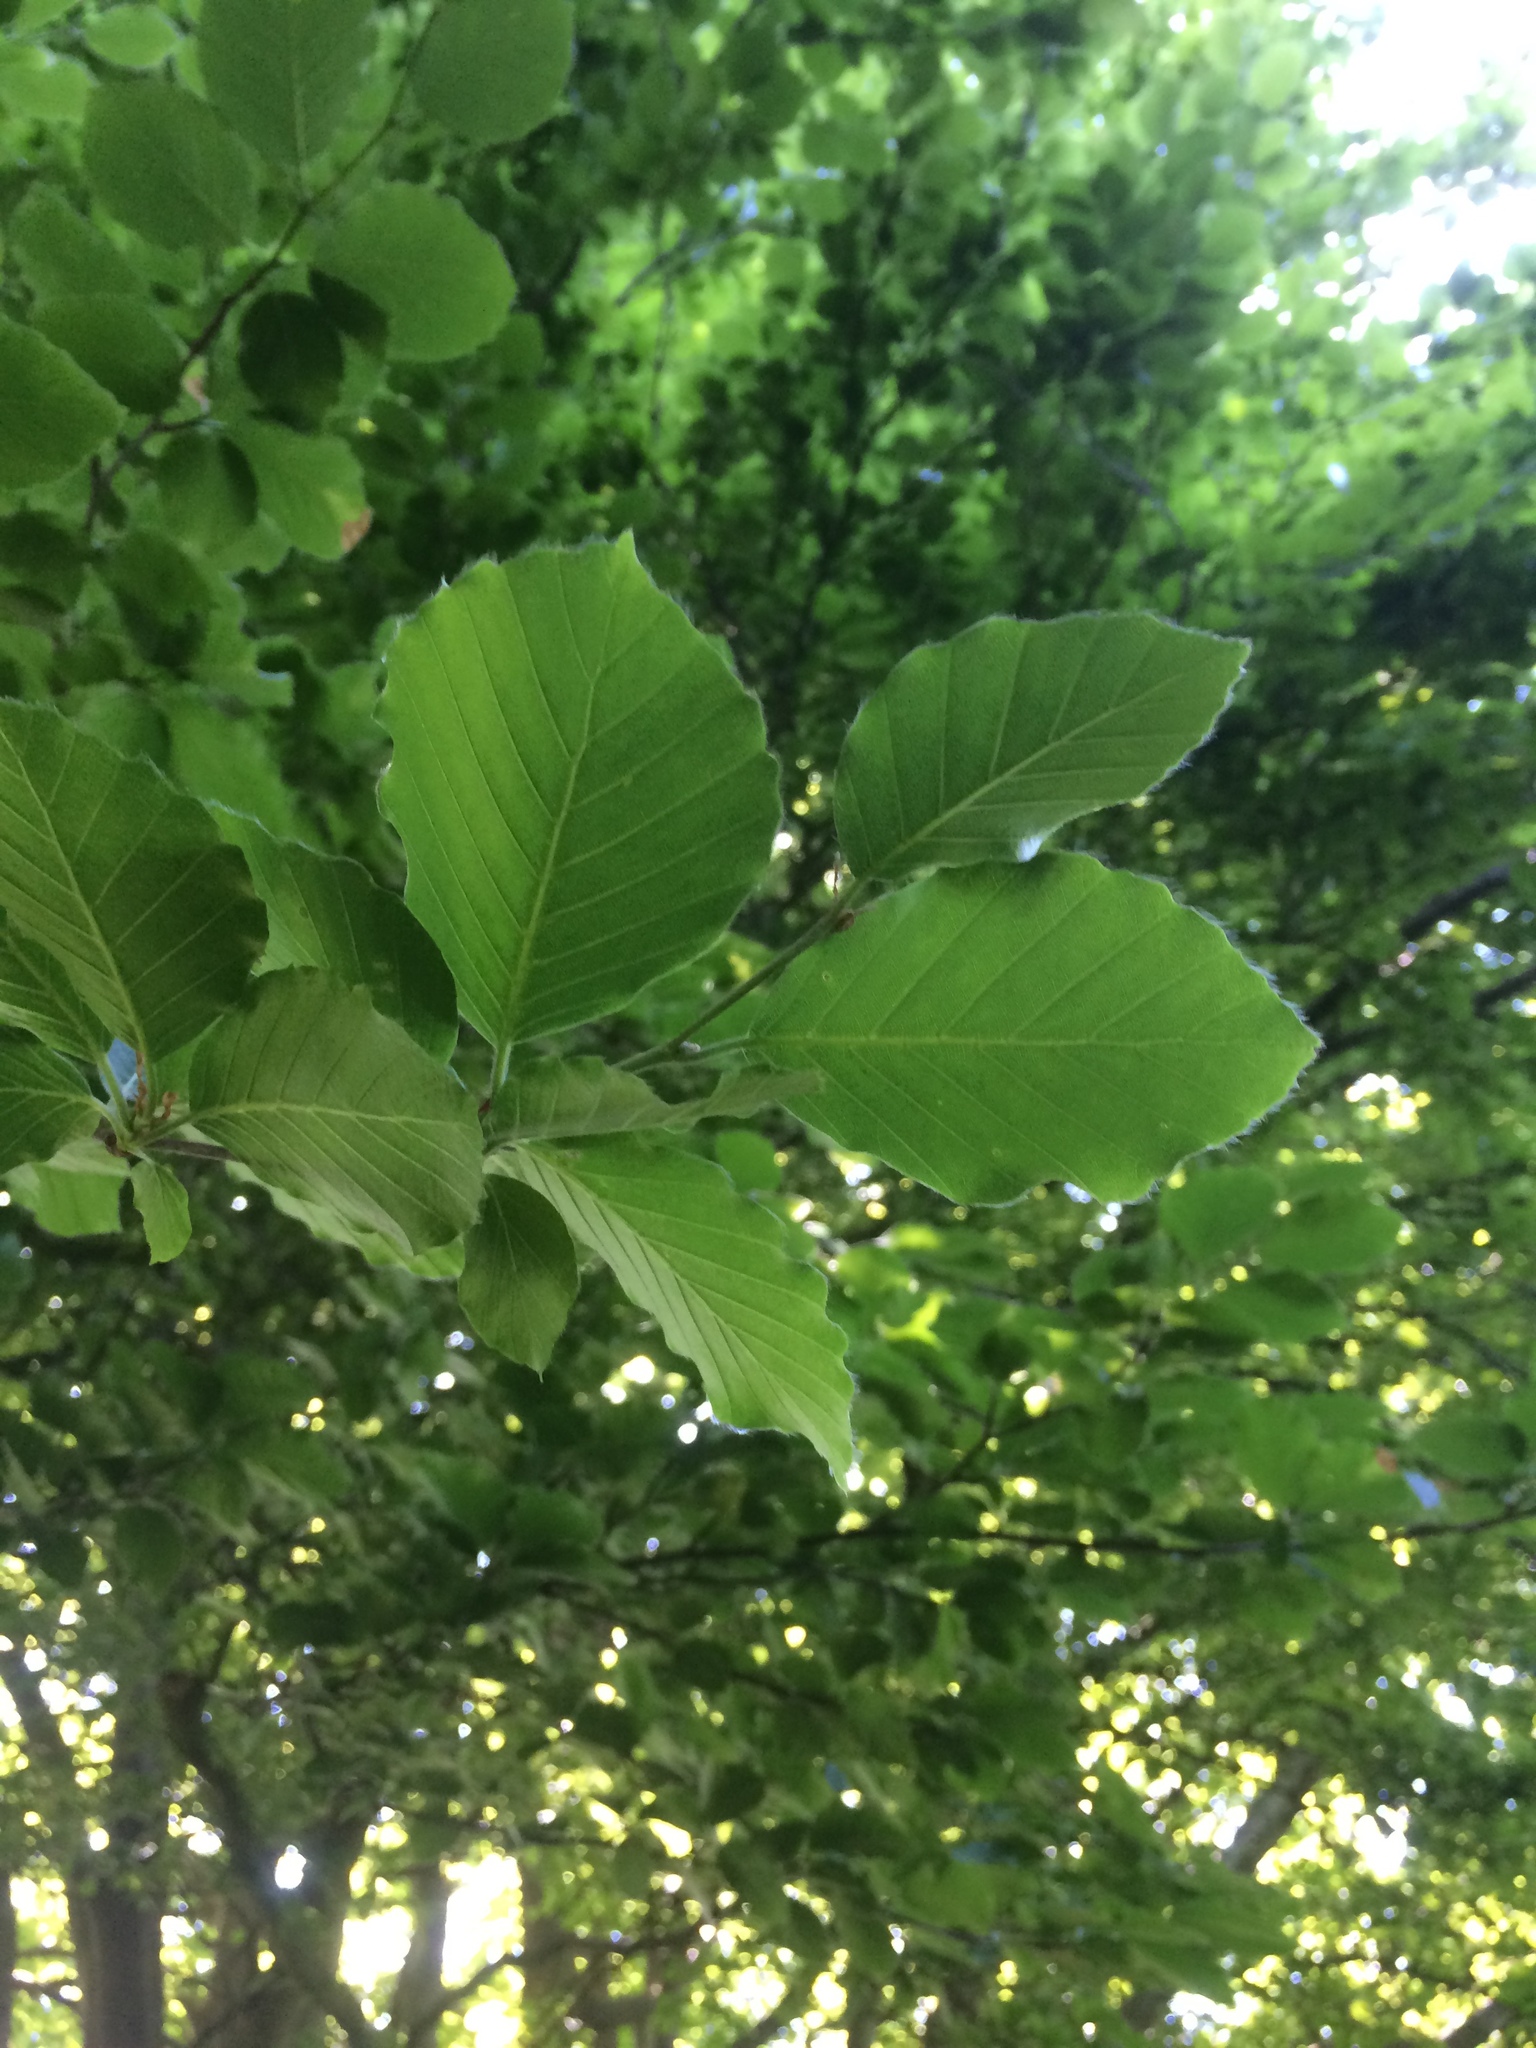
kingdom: Plantae
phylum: Tracheophyta
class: Magnoliopsida
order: Fagales
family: Fagaceae
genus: Fagus
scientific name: Fagus sylvatica
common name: Beech
